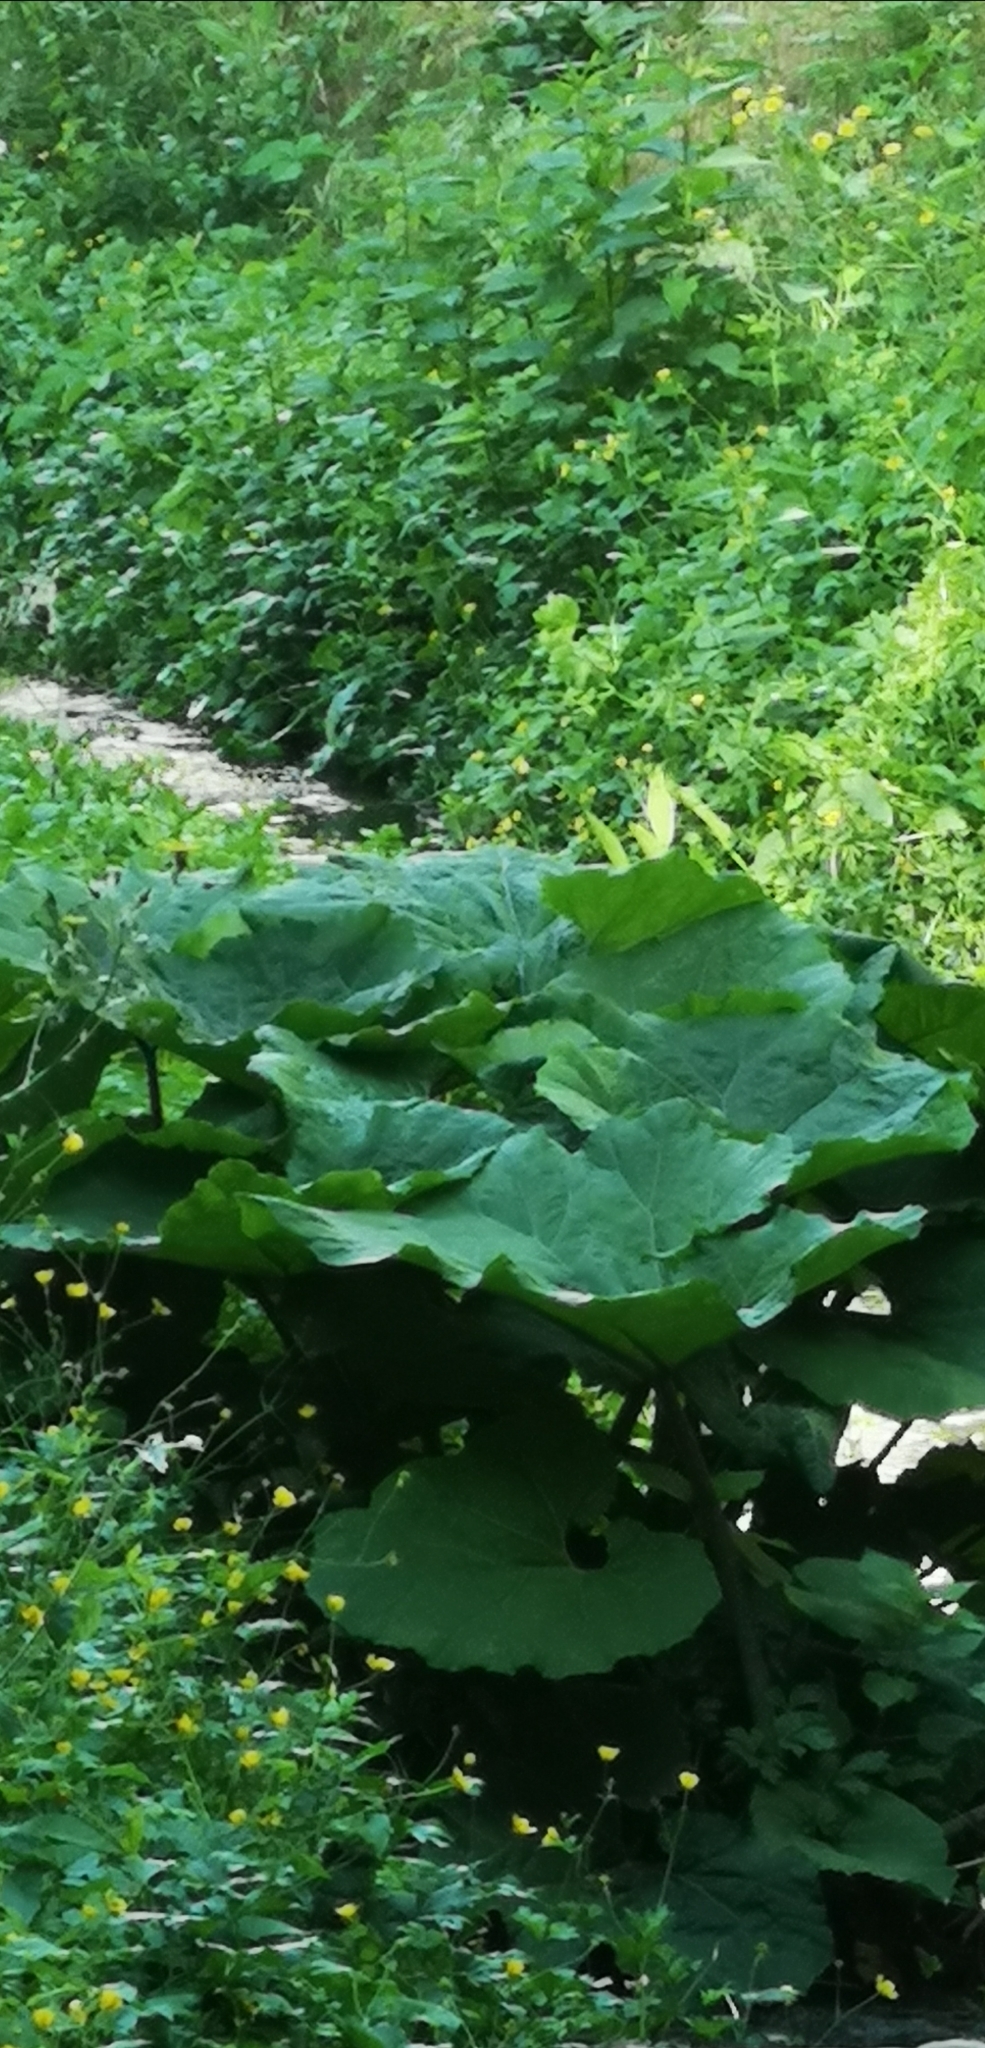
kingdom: Plantae
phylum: Tracheophyta
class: Magnoliopsida
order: Asterales
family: Asteraceae
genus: Petasites
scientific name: Petasites hybridus
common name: Butterbur
